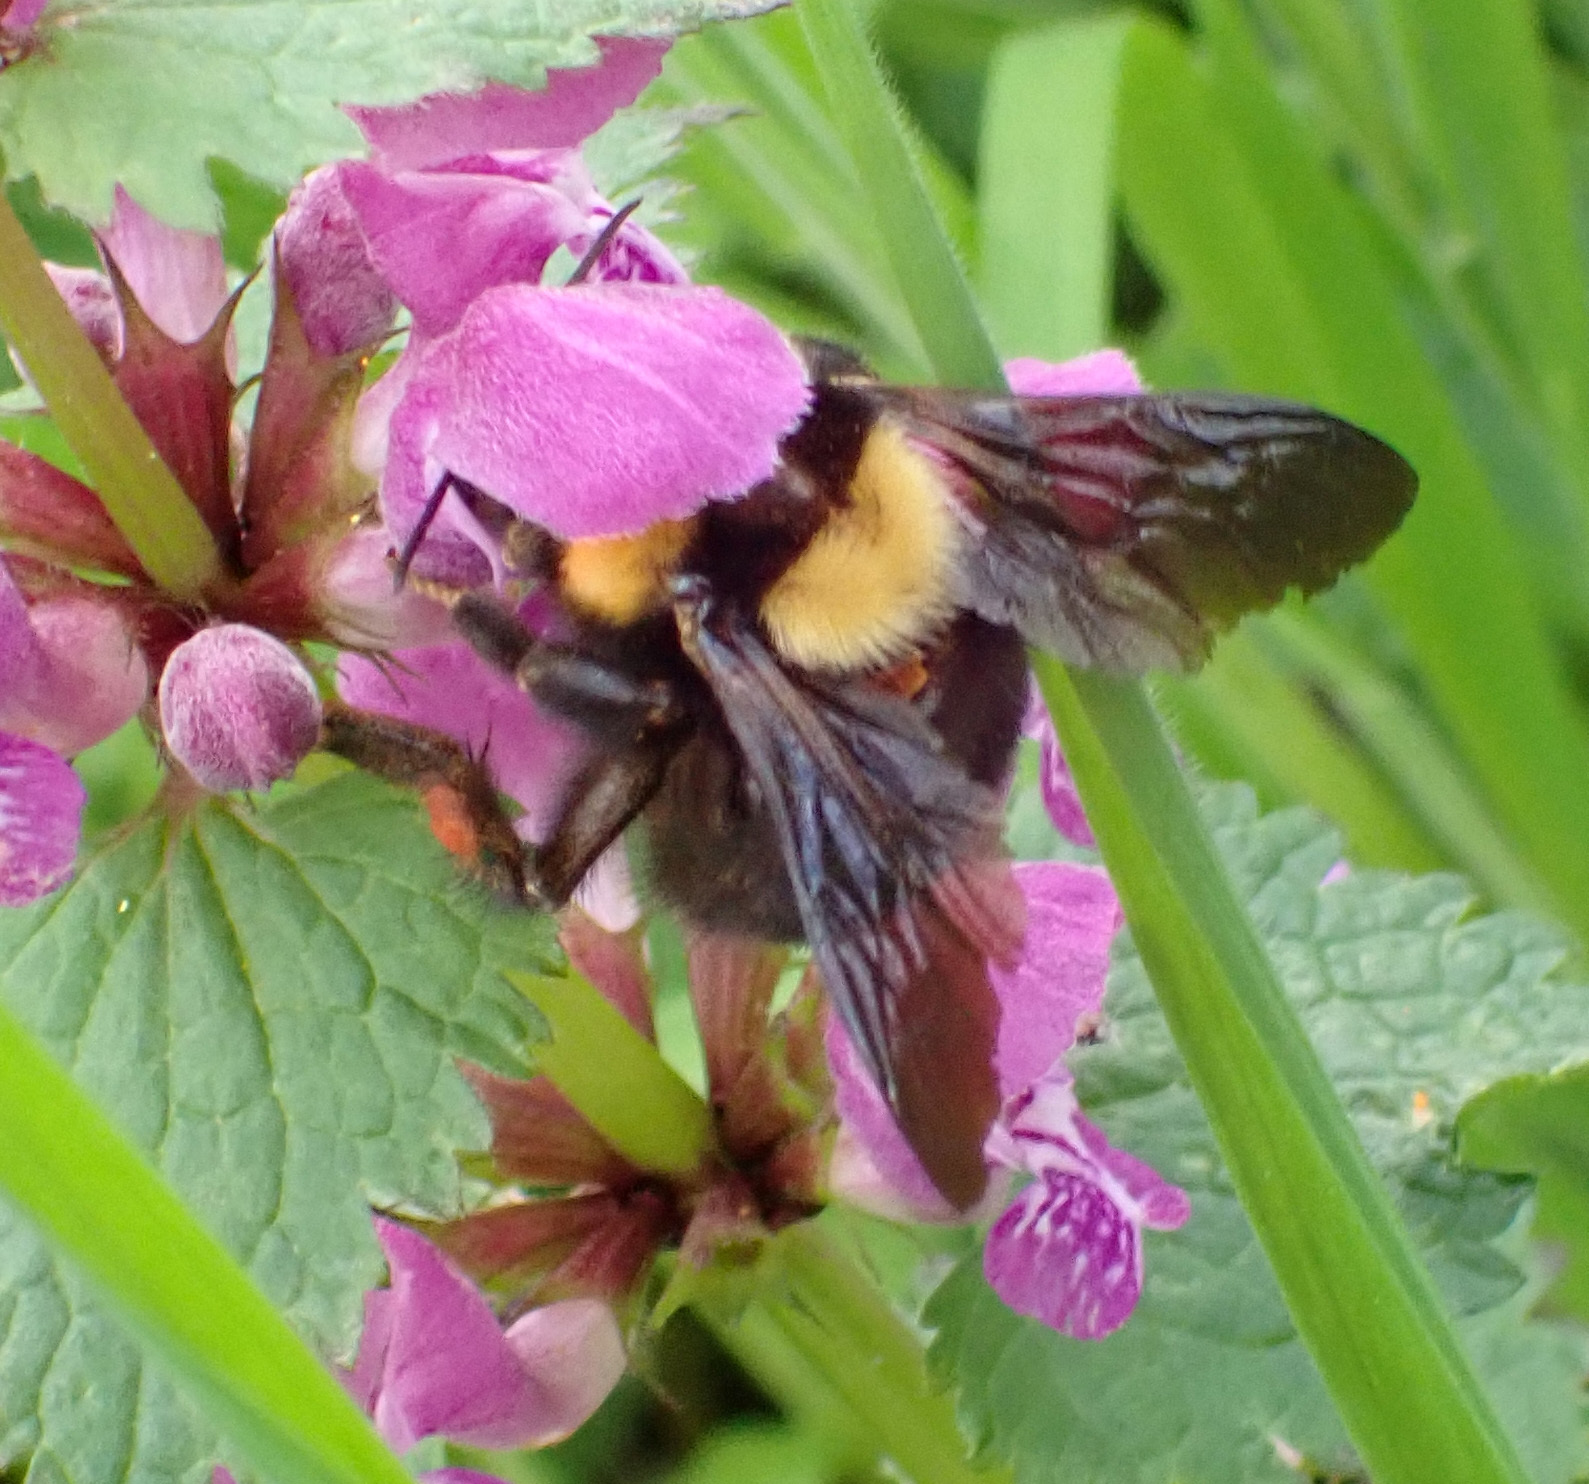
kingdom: Animalia
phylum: Arthropoda
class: Insecta
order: Hymenoptera
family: Apidae
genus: Bombus
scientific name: Bombus argillaceus
